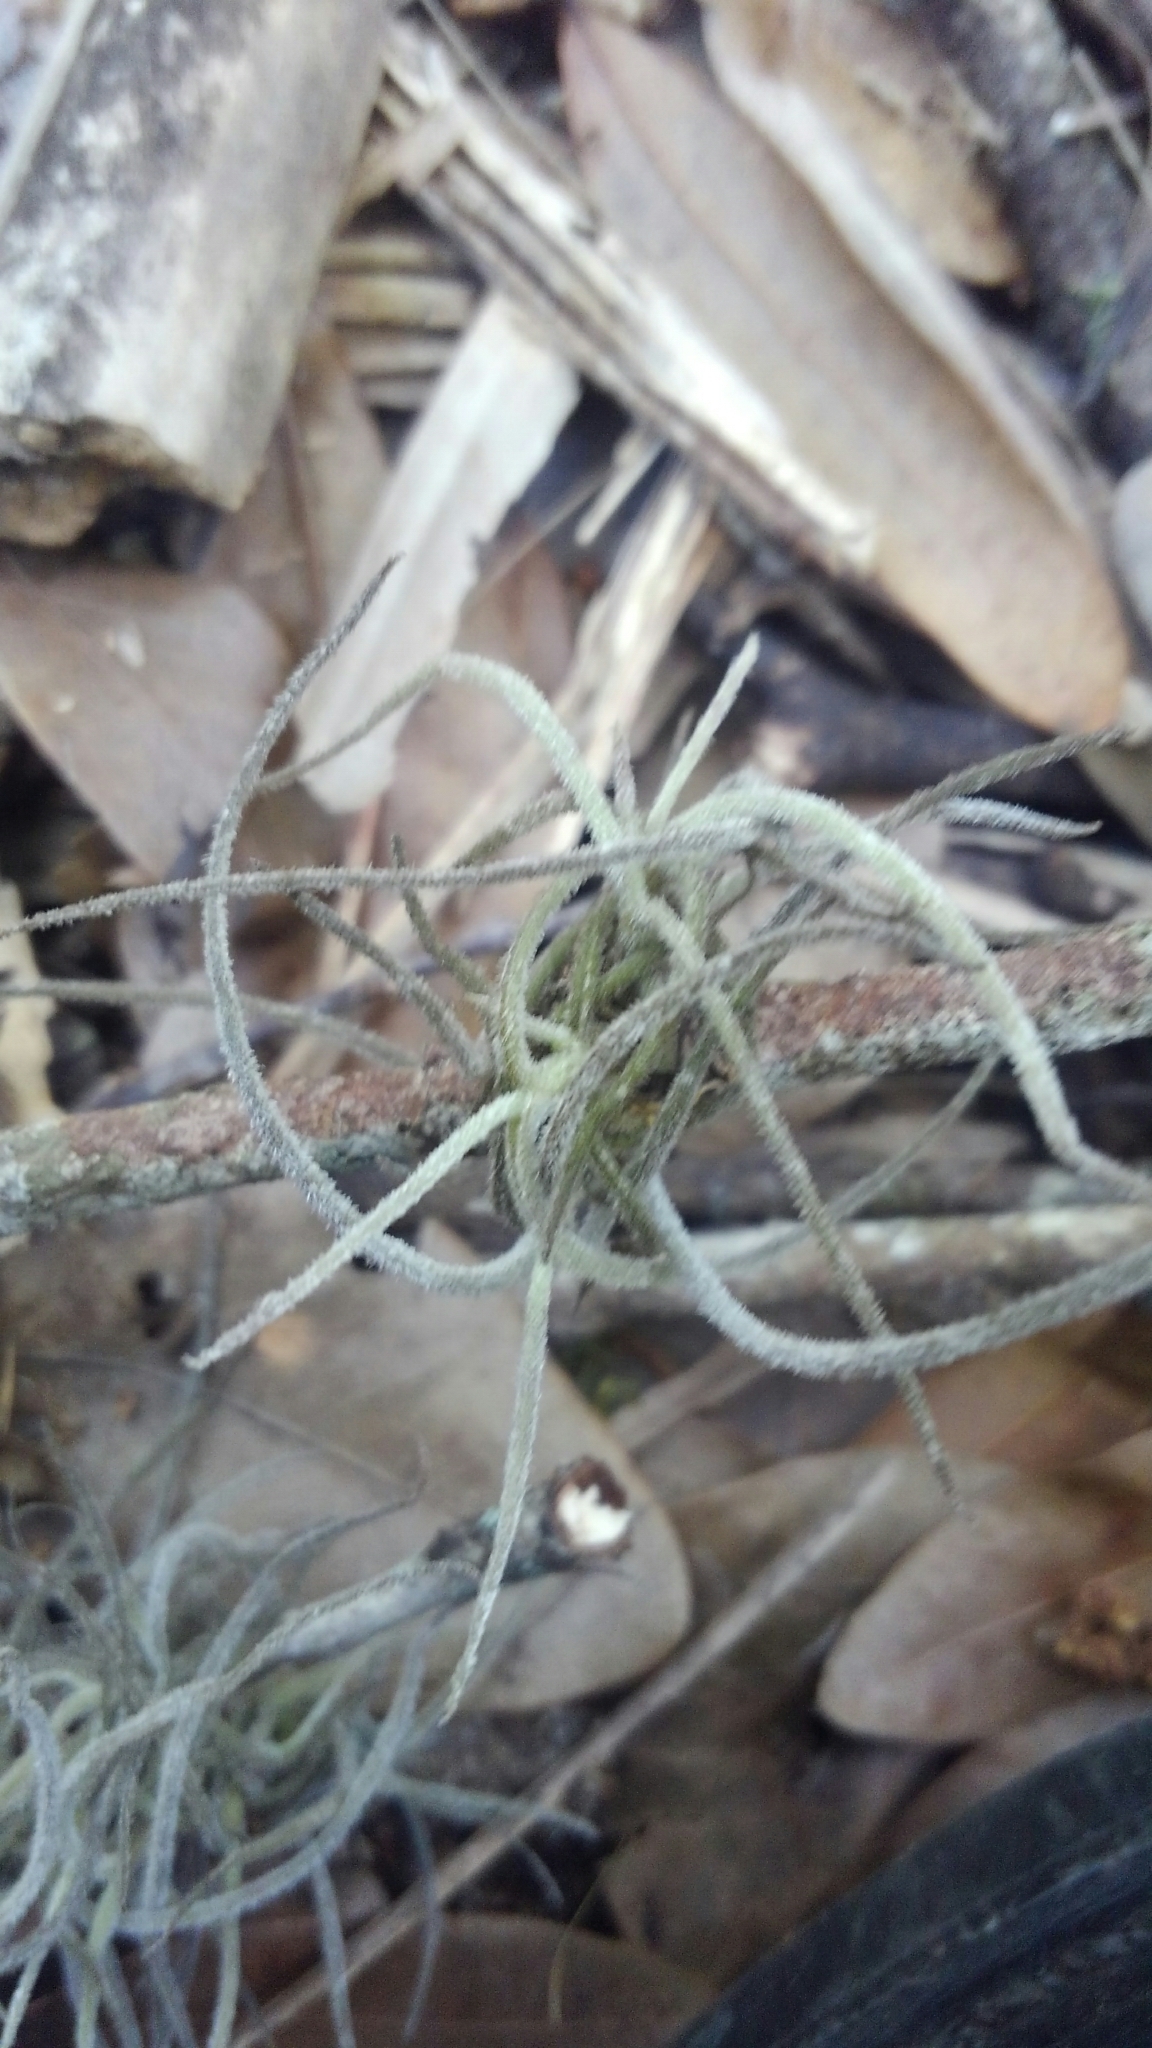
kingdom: Plantae
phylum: Tracheophyta
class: Liliopsida
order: Poales
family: Bromeliaceae
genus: Tillandsia
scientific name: Tillandsia recurvata
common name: Small ballmoss
